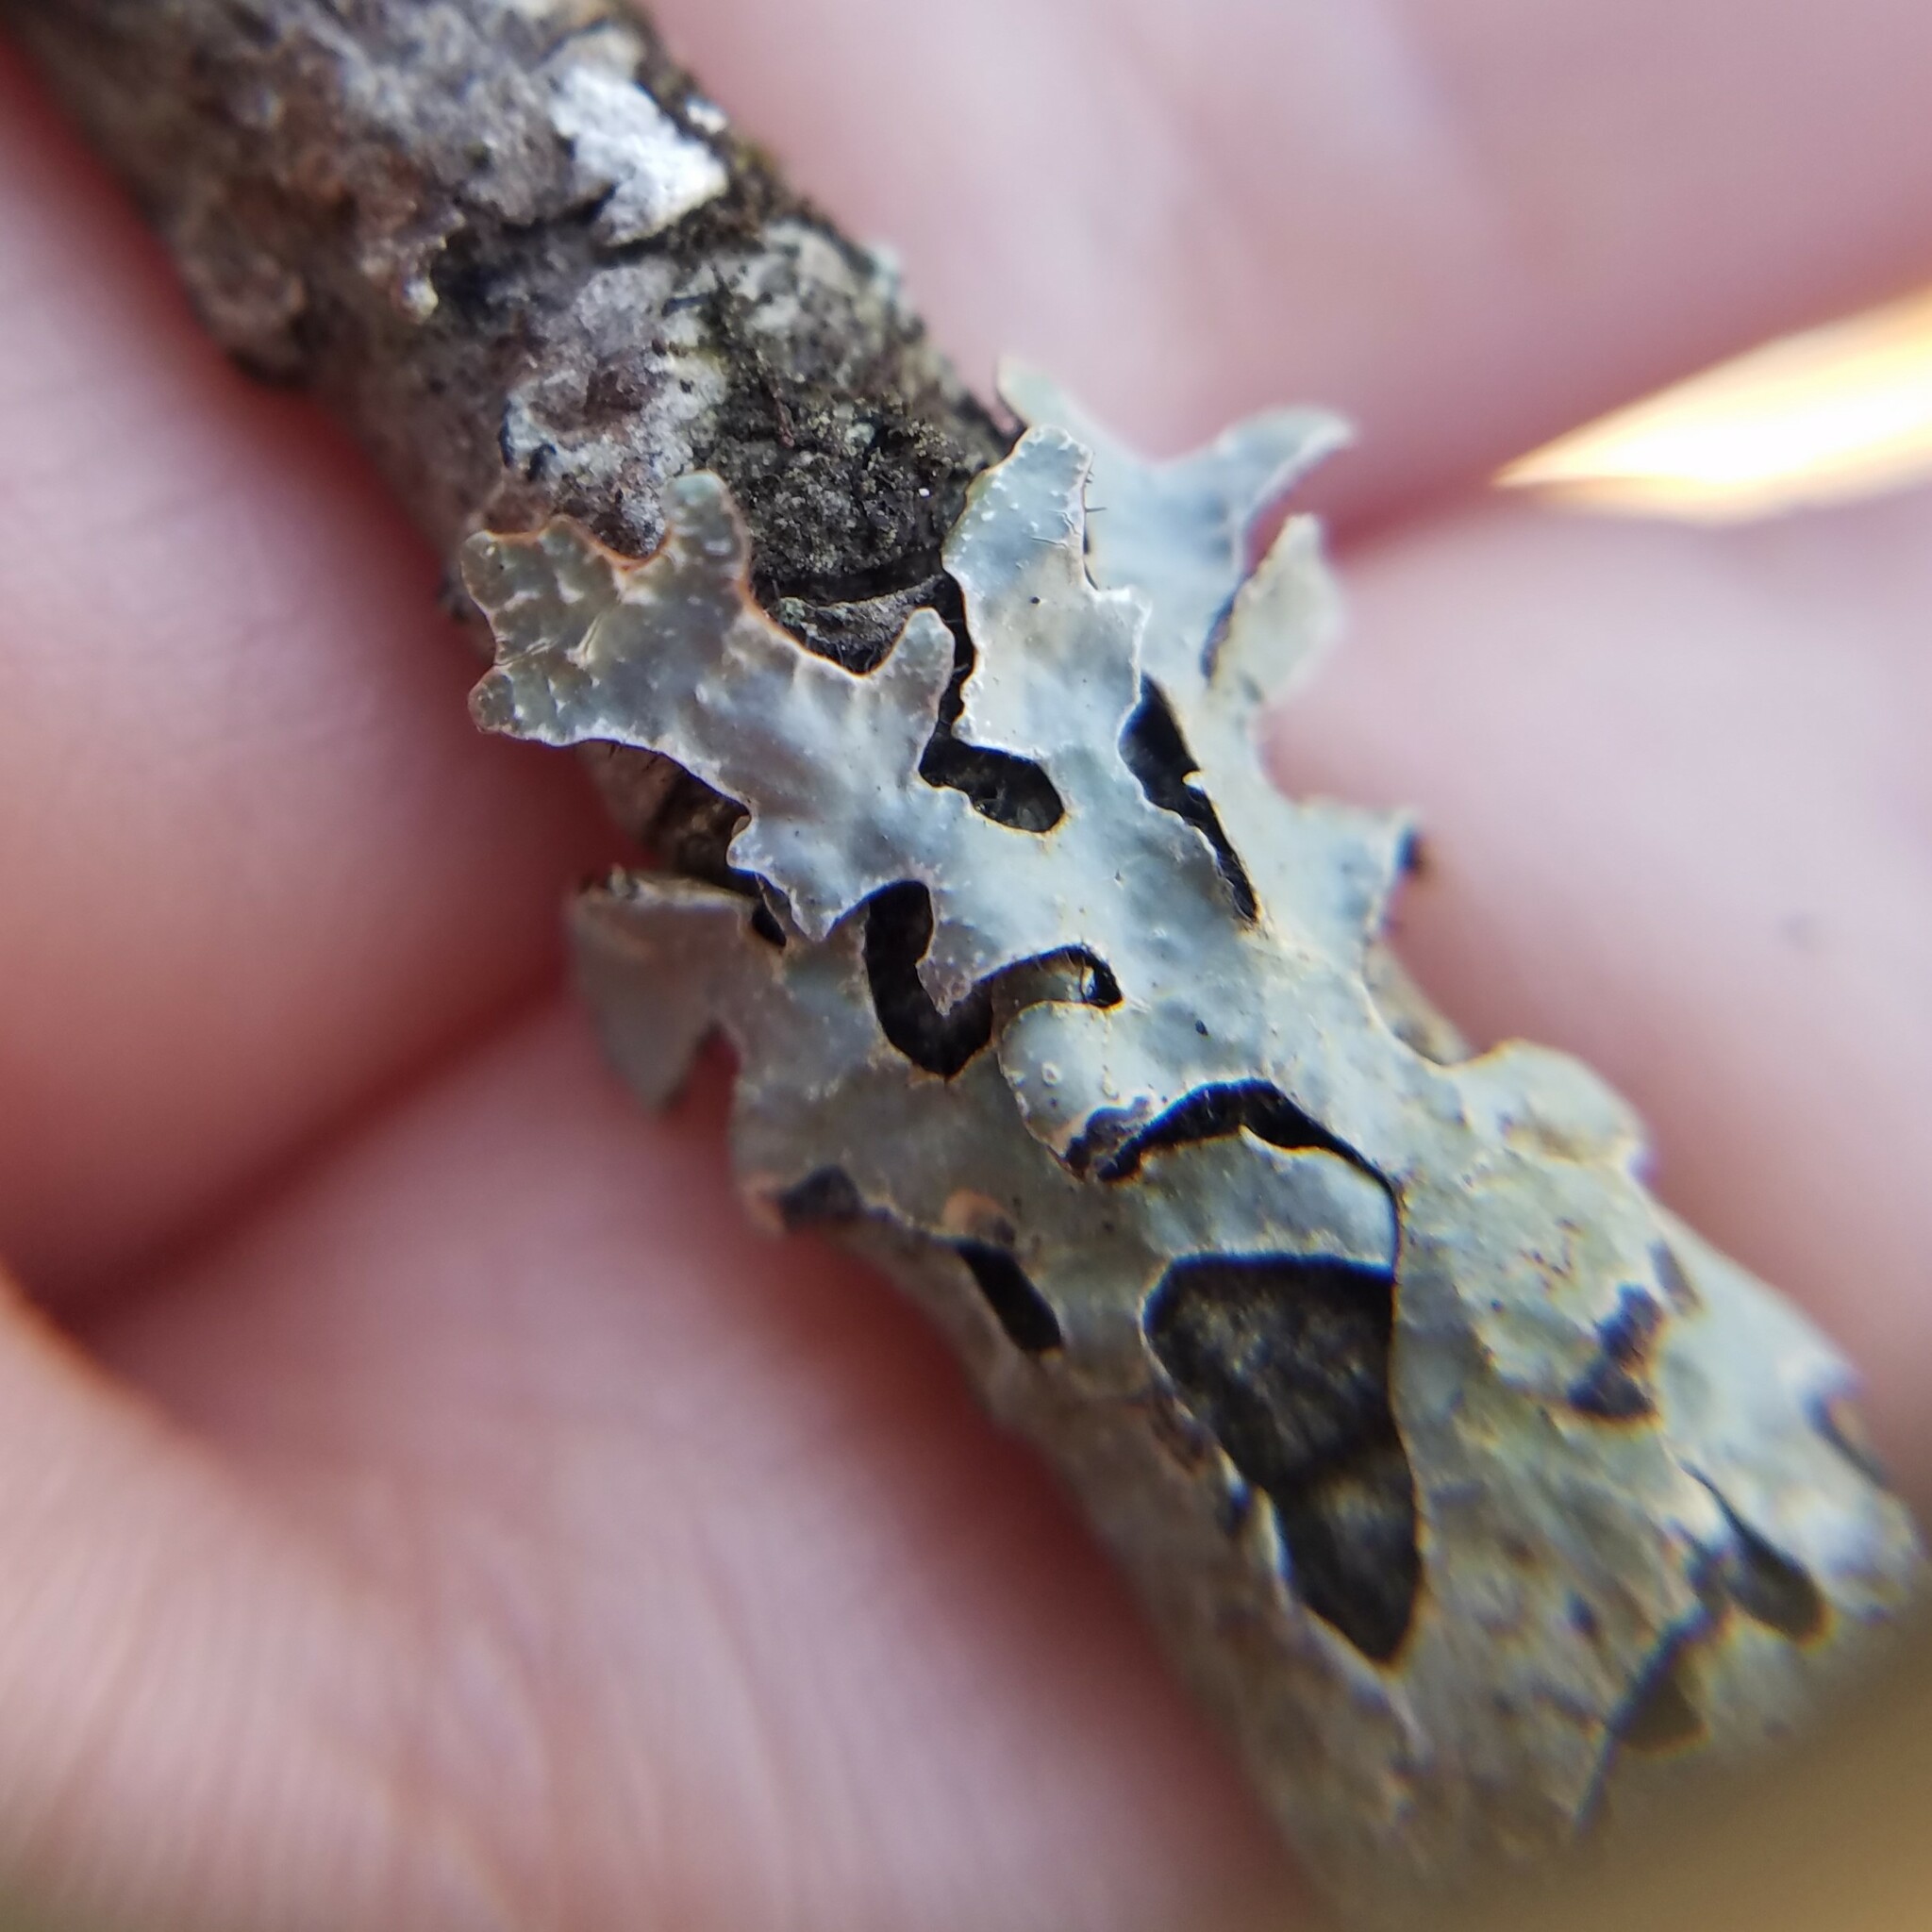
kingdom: Fungi
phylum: Ascomycota
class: Lecanoromycetes
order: Lecanorales
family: Parmeliaceae
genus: Parmelia
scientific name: Parmelia squarrosa
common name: Bottle brush shield lichen
